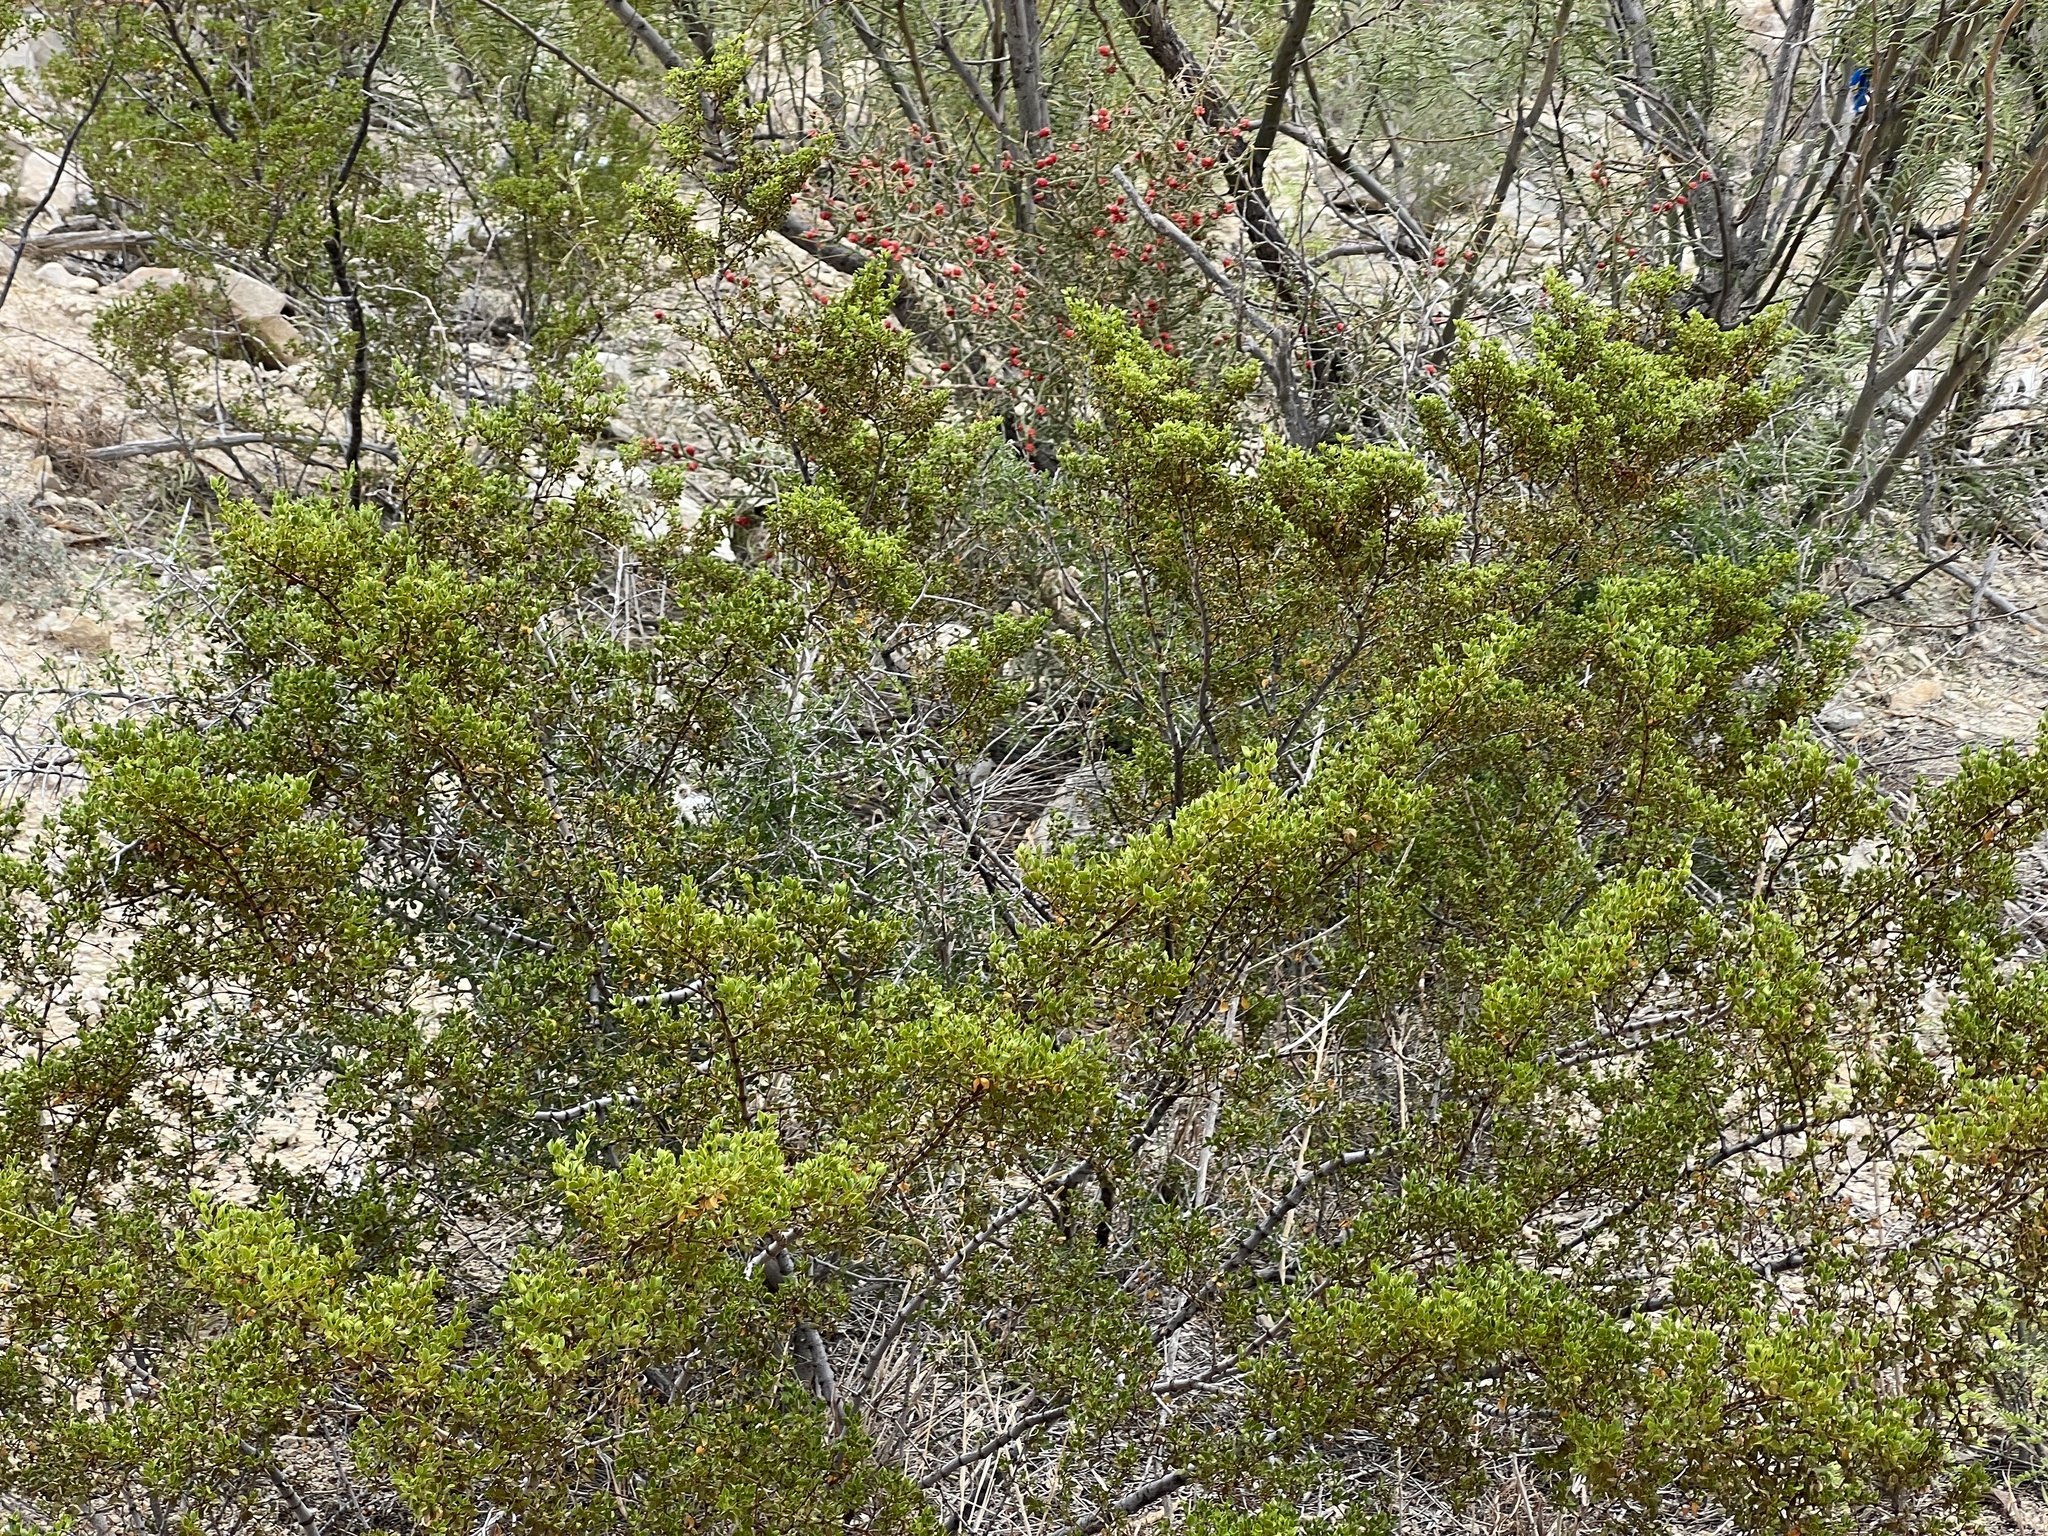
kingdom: Plantae
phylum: Tracheophyta
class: Magnoliopsida
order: Zygophyllales
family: Zygophyllaceae
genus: Larrea
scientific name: Larrea tridentata
